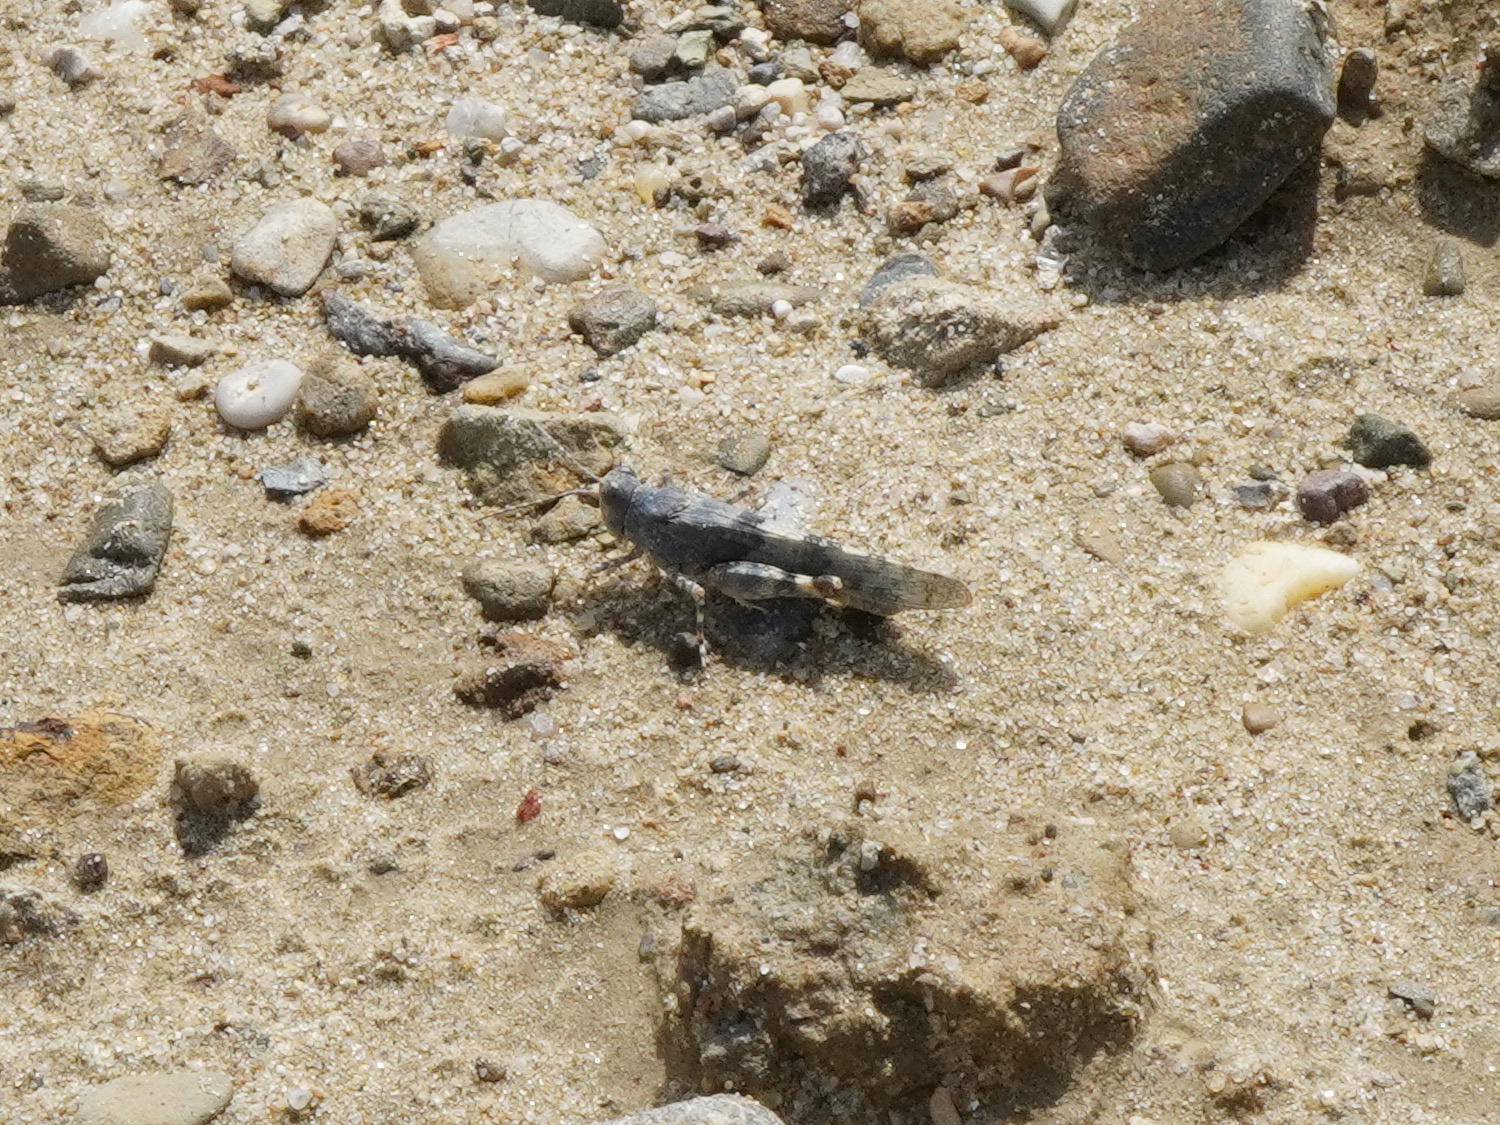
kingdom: Animalia
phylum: Arthropoda
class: Insecta
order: Orthoptera
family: Acrididae
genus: Sphingonotus
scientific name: Sphingonotus caerulans
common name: Blue-winged locust
